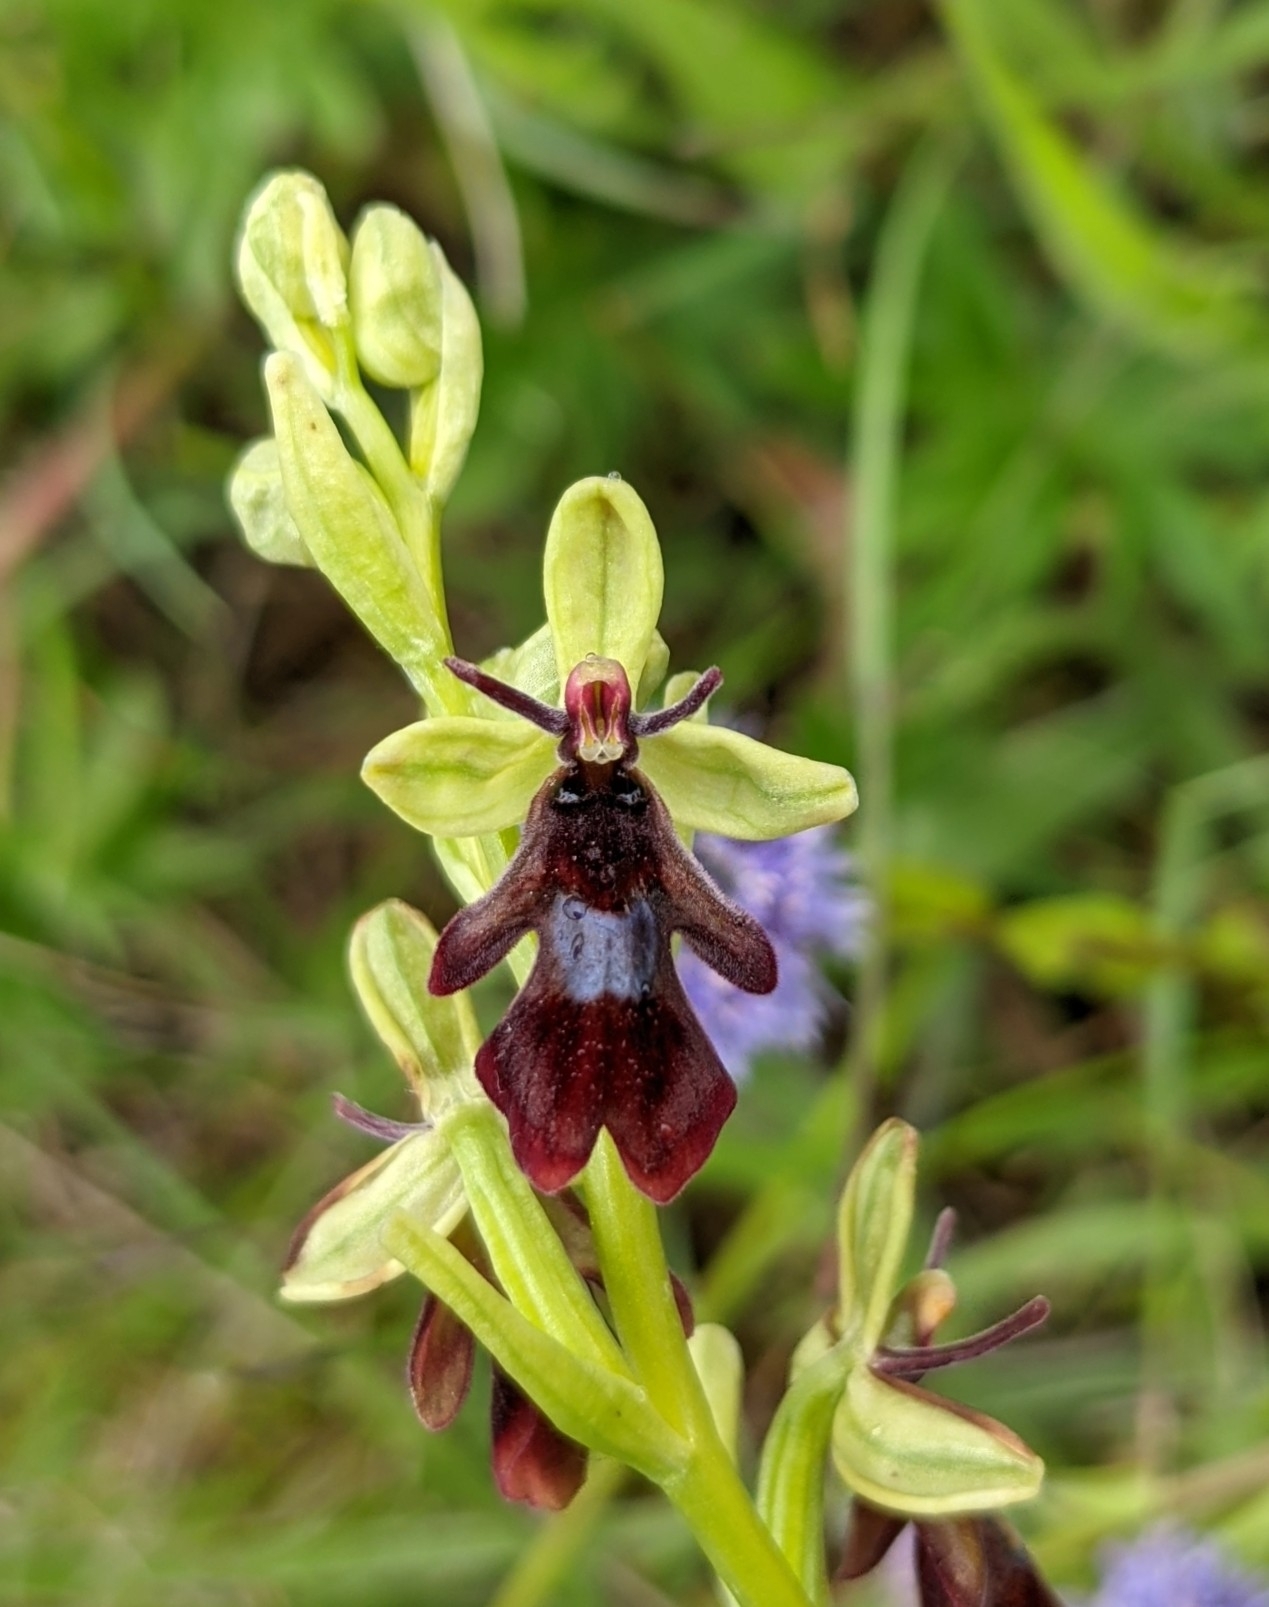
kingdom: Plantae
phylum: Tracheophyta
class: Liliopsida
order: Asparagales
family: Orchidaceae
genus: Ophrys
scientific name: Ophrys insectifera
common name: Fly orchid
